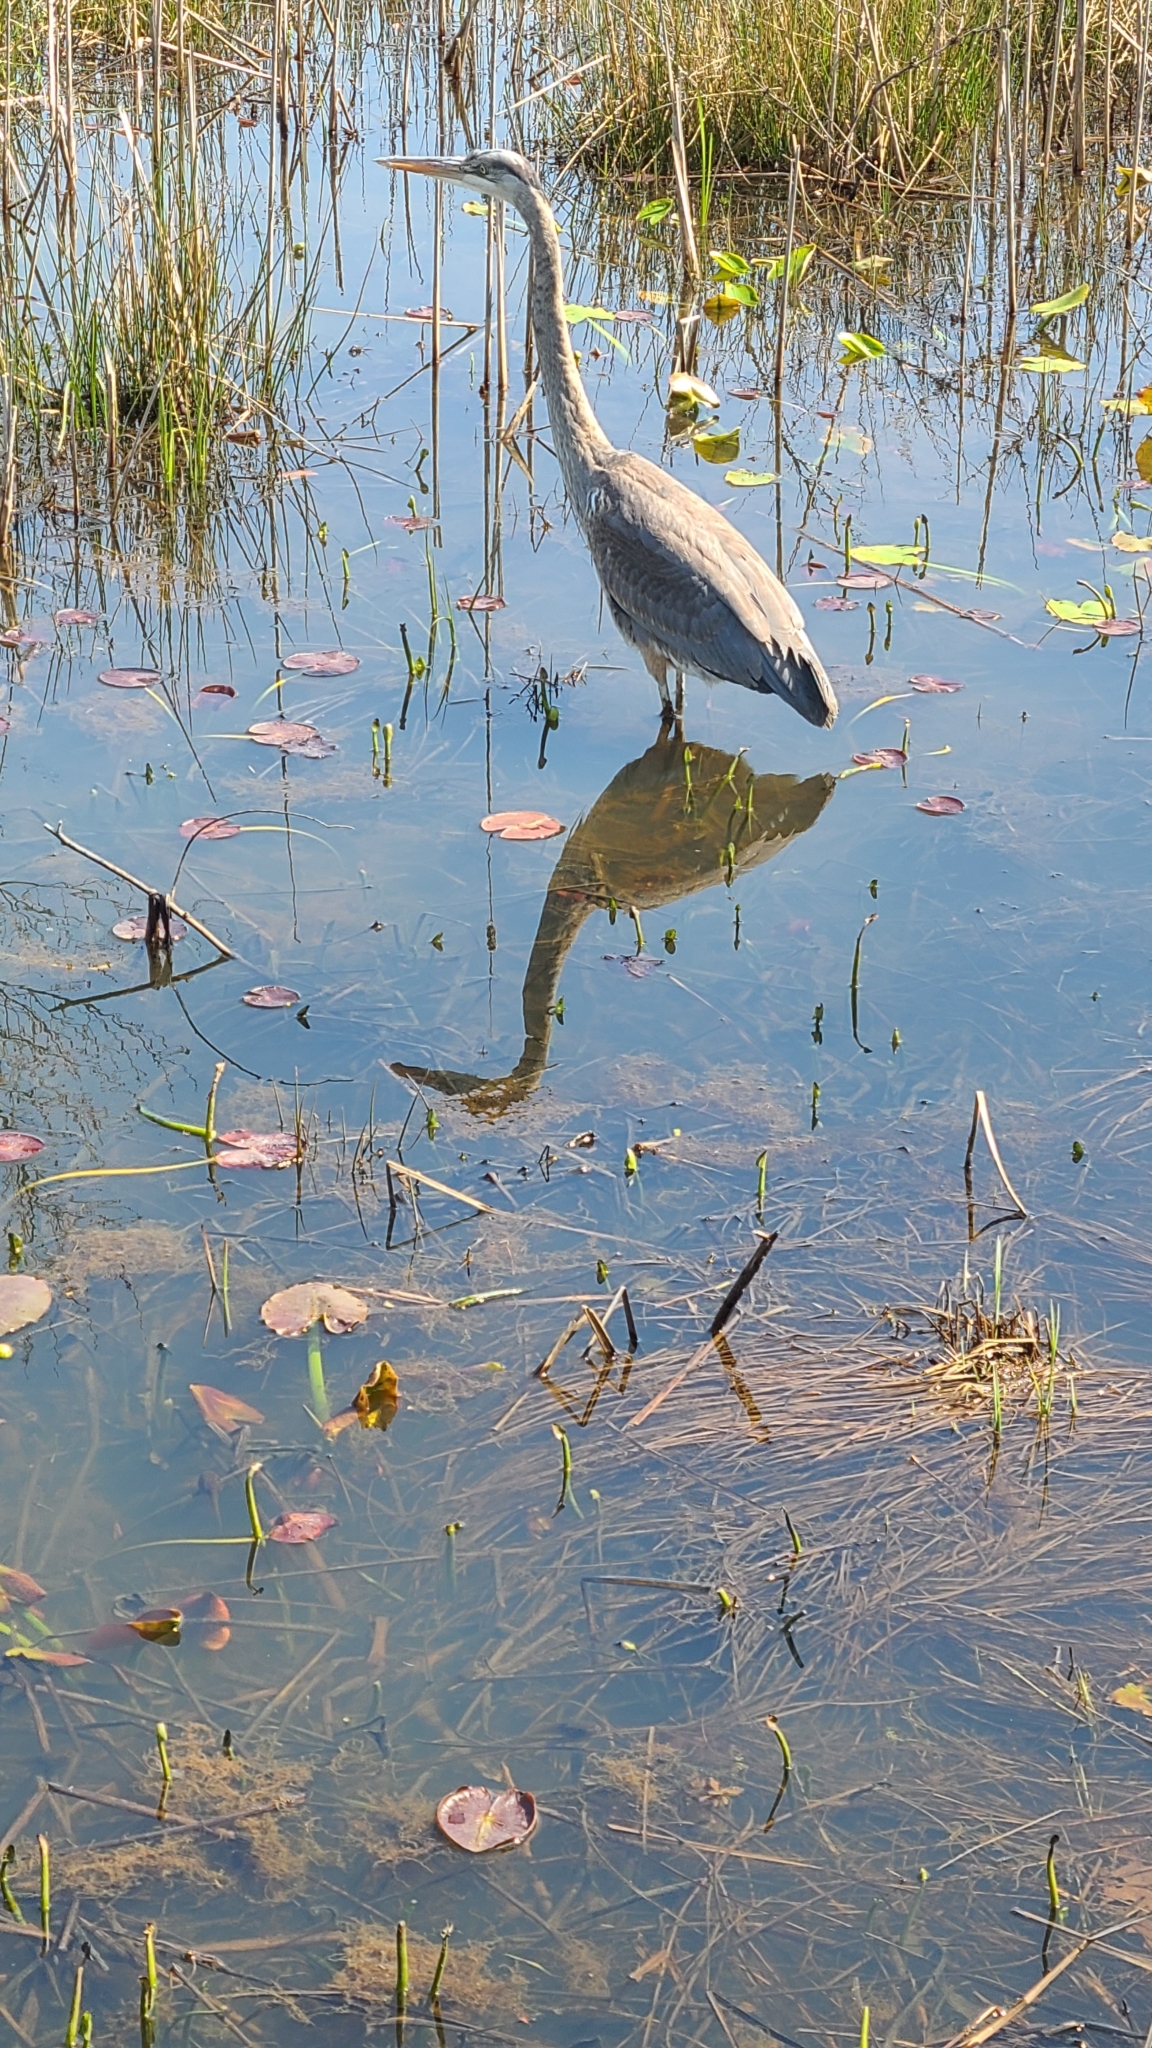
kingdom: Animalia
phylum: Chordata
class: Aves
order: Pelecaniformes
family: Ardeidae
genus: Ardea
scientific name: Ardea herodias
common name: Great blue heron
